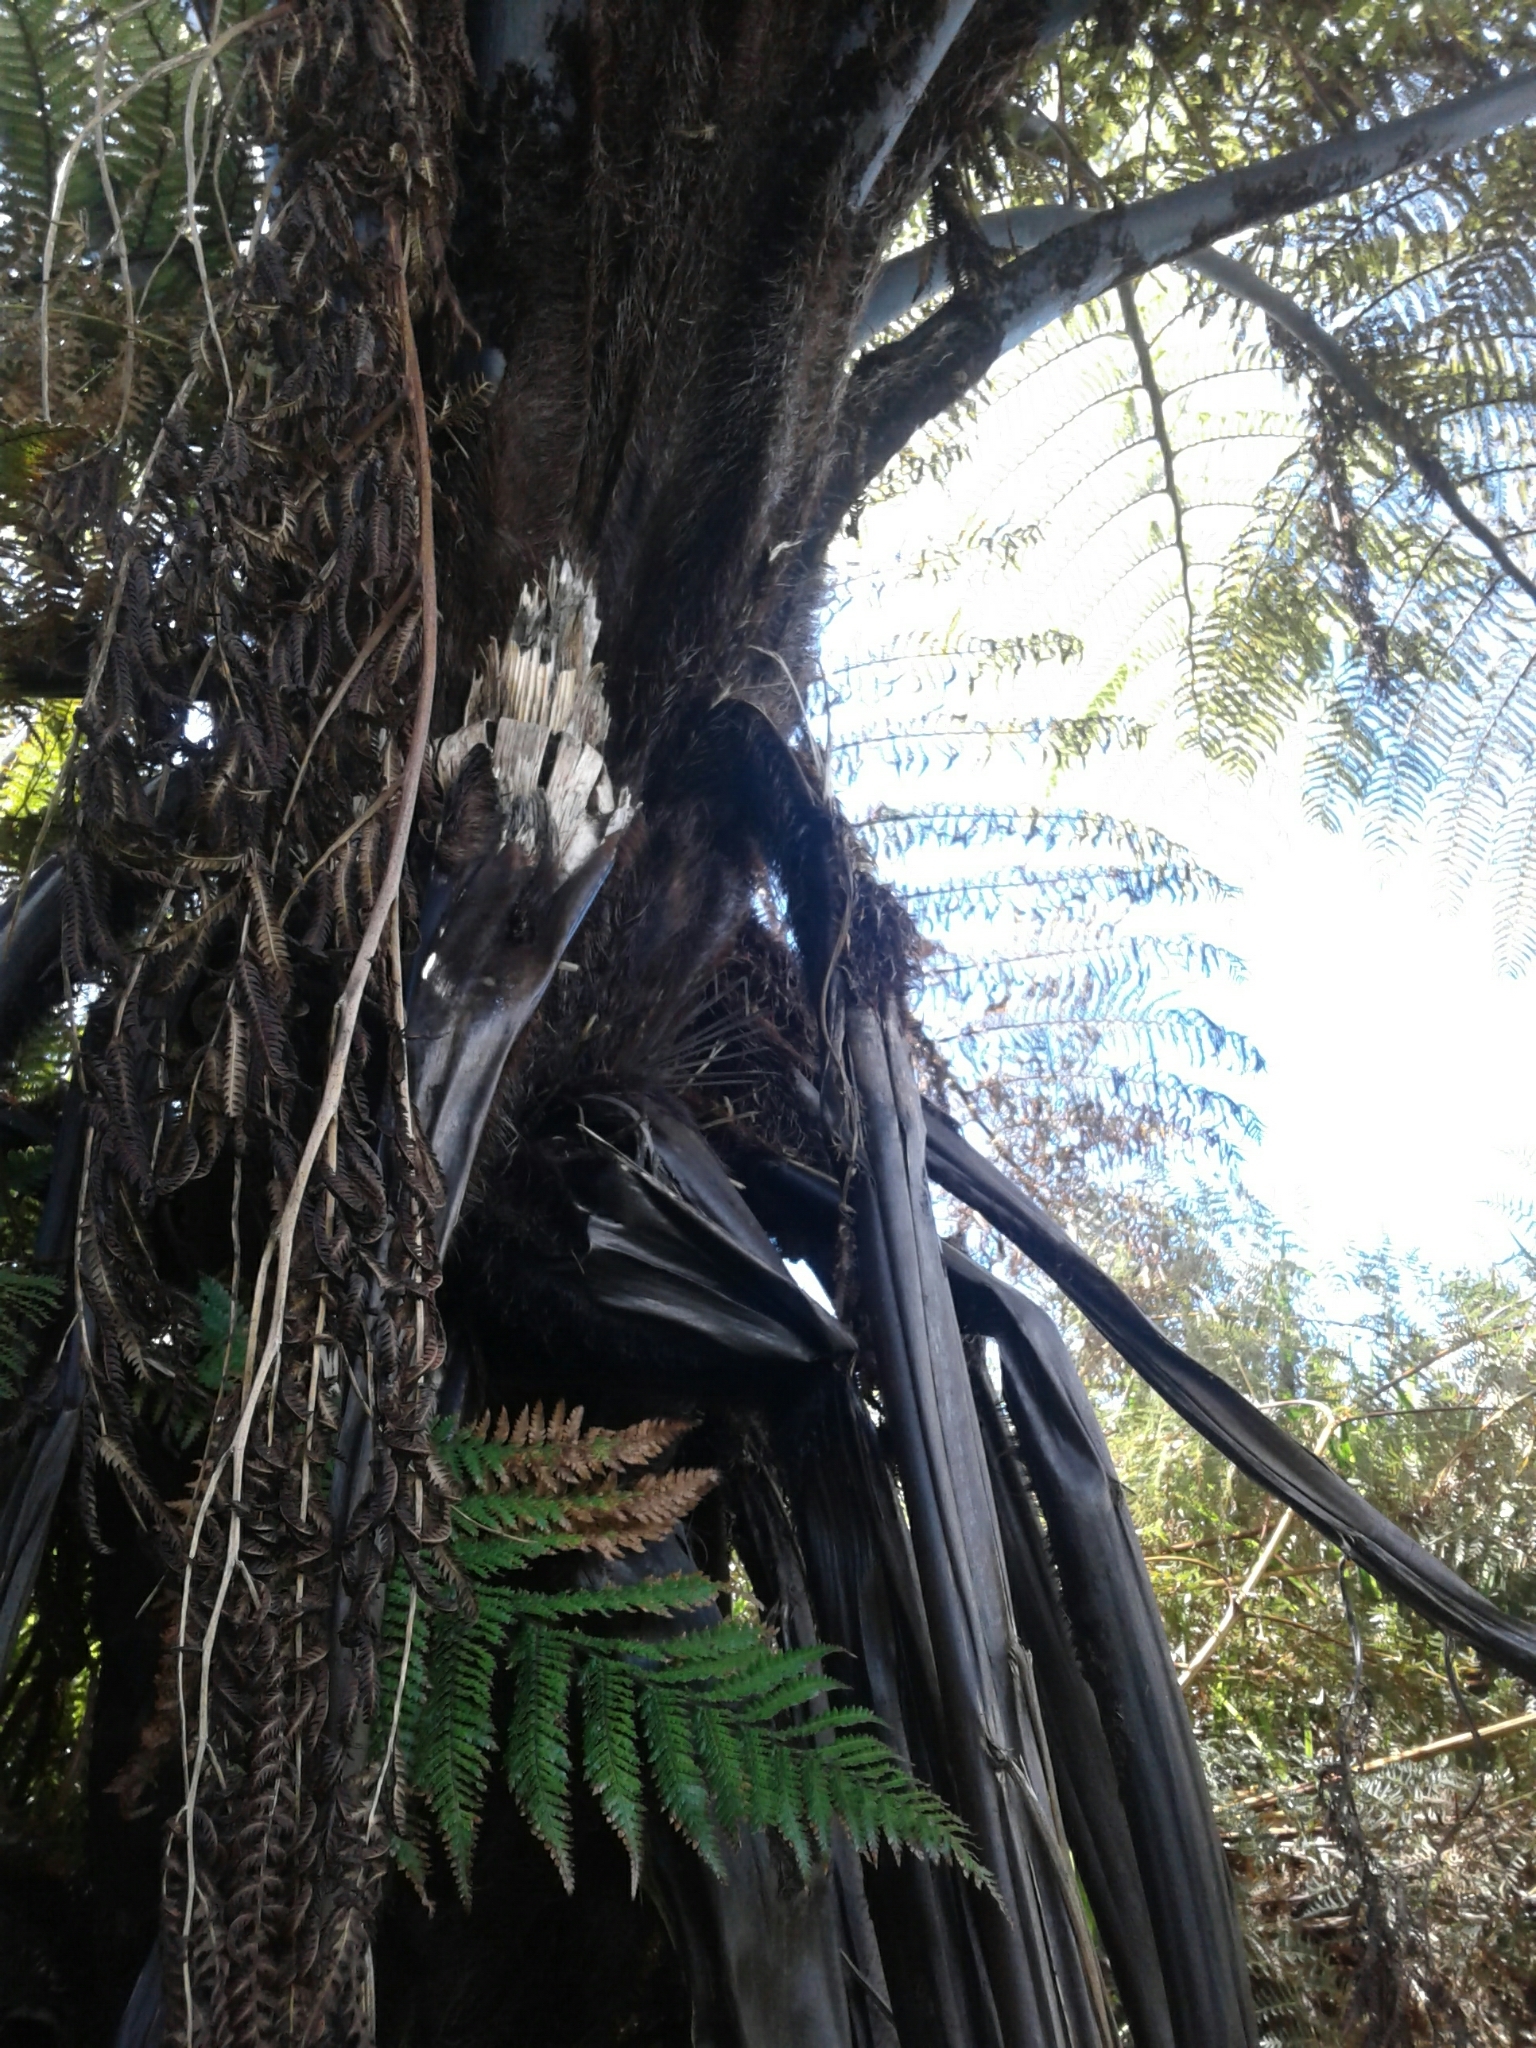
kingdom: Plantae
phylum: Tracheophyta
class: Polypodiopsida
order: Cyatheales
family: Cyatheaceae
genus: Sphaeropteris
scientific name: Sphaeropteris medullaris
